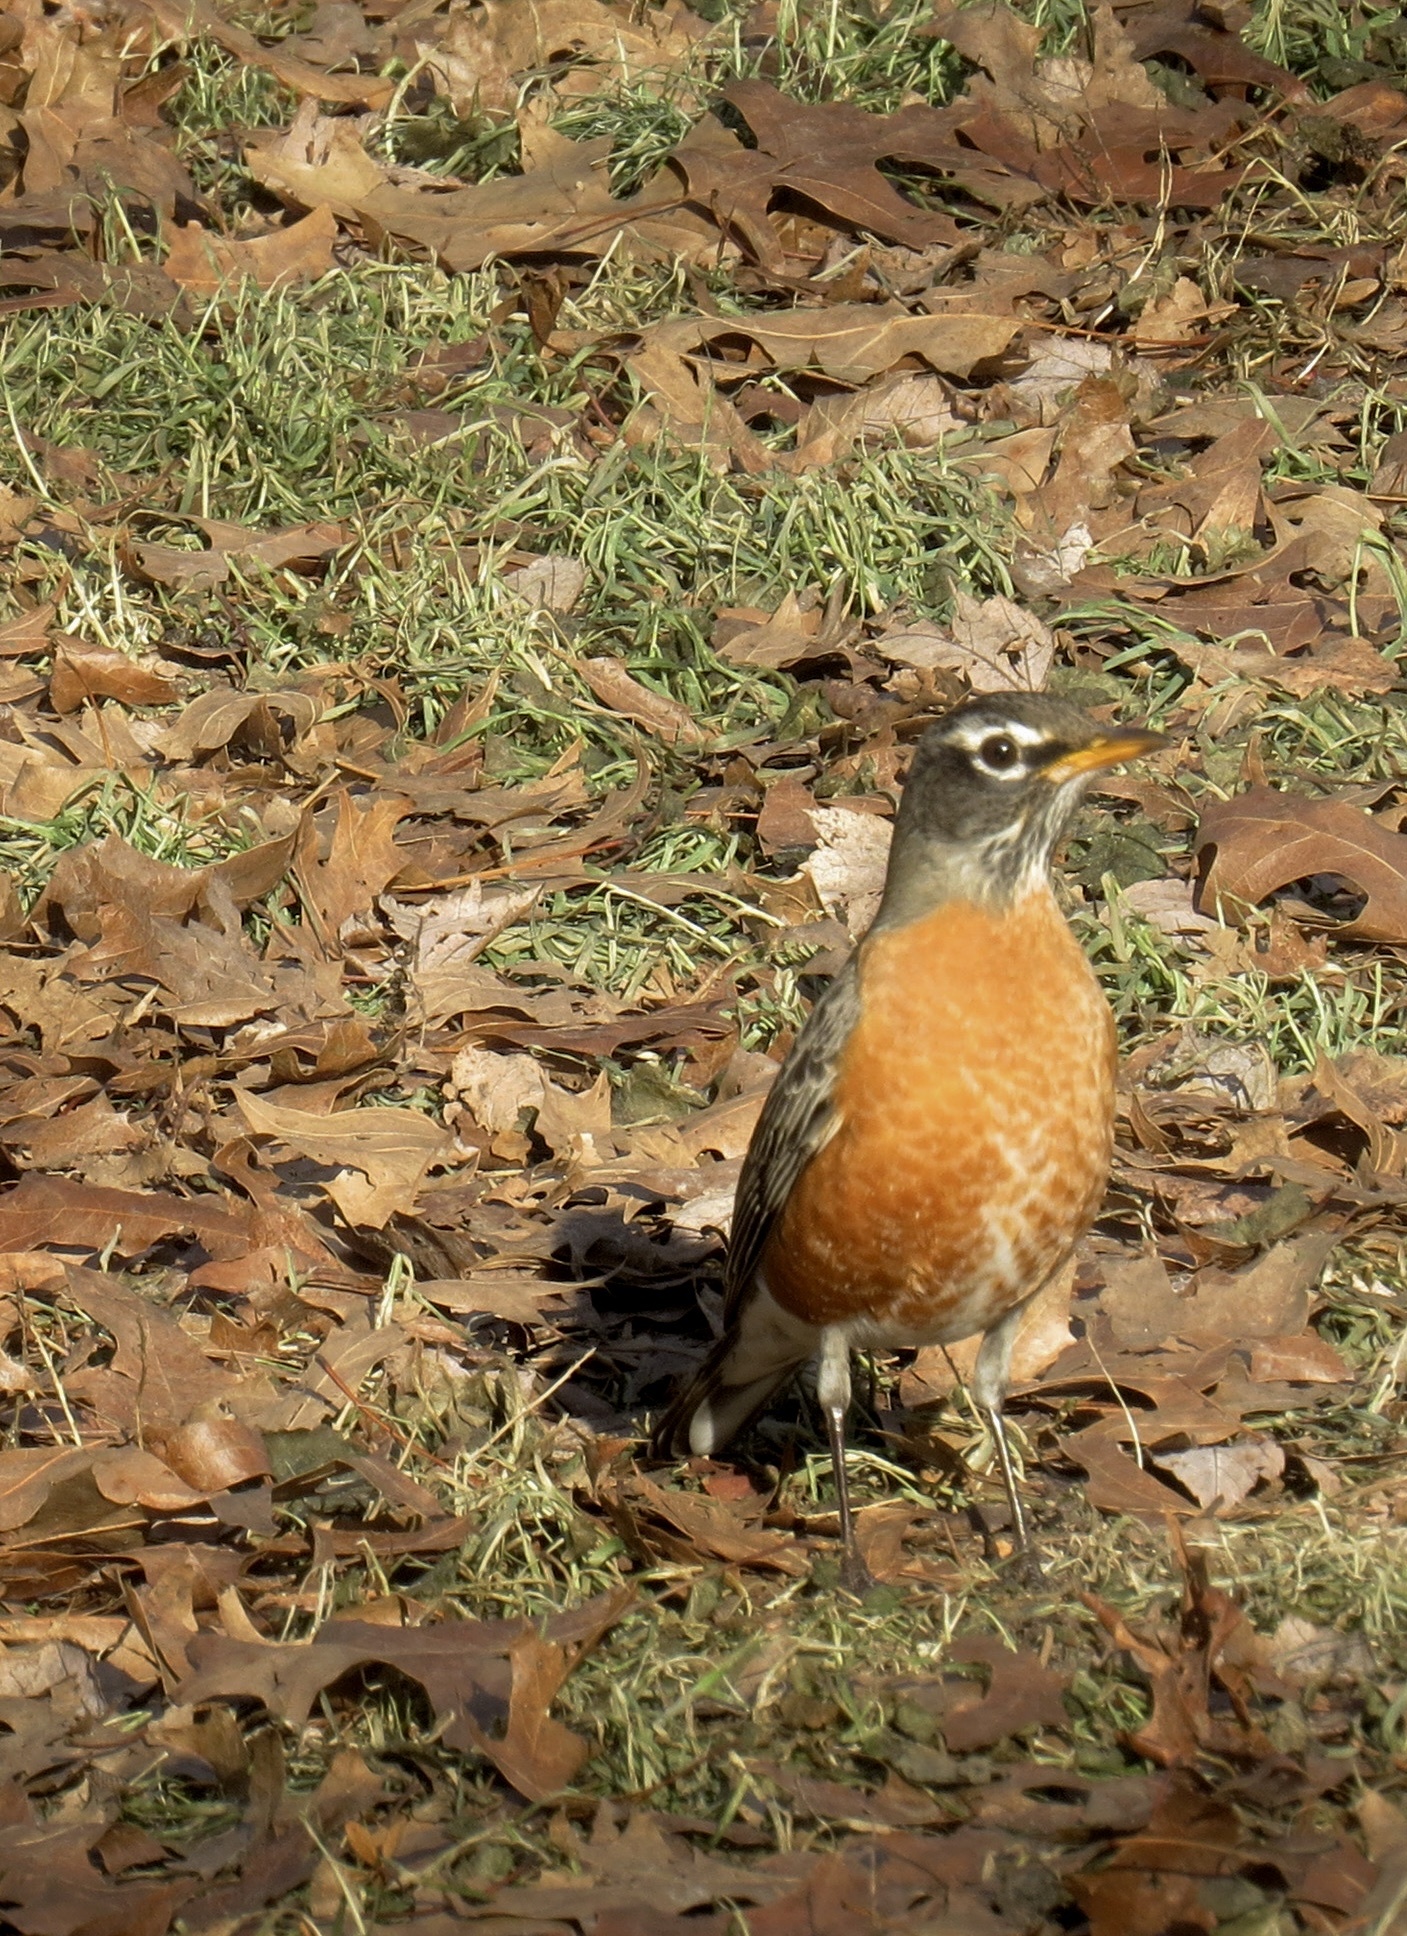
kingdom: Animalia
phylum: Chordata
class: Aves
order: Passeriformes
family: Turdidae
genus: Turdus
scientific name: Turdus migratorius
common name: American robin
